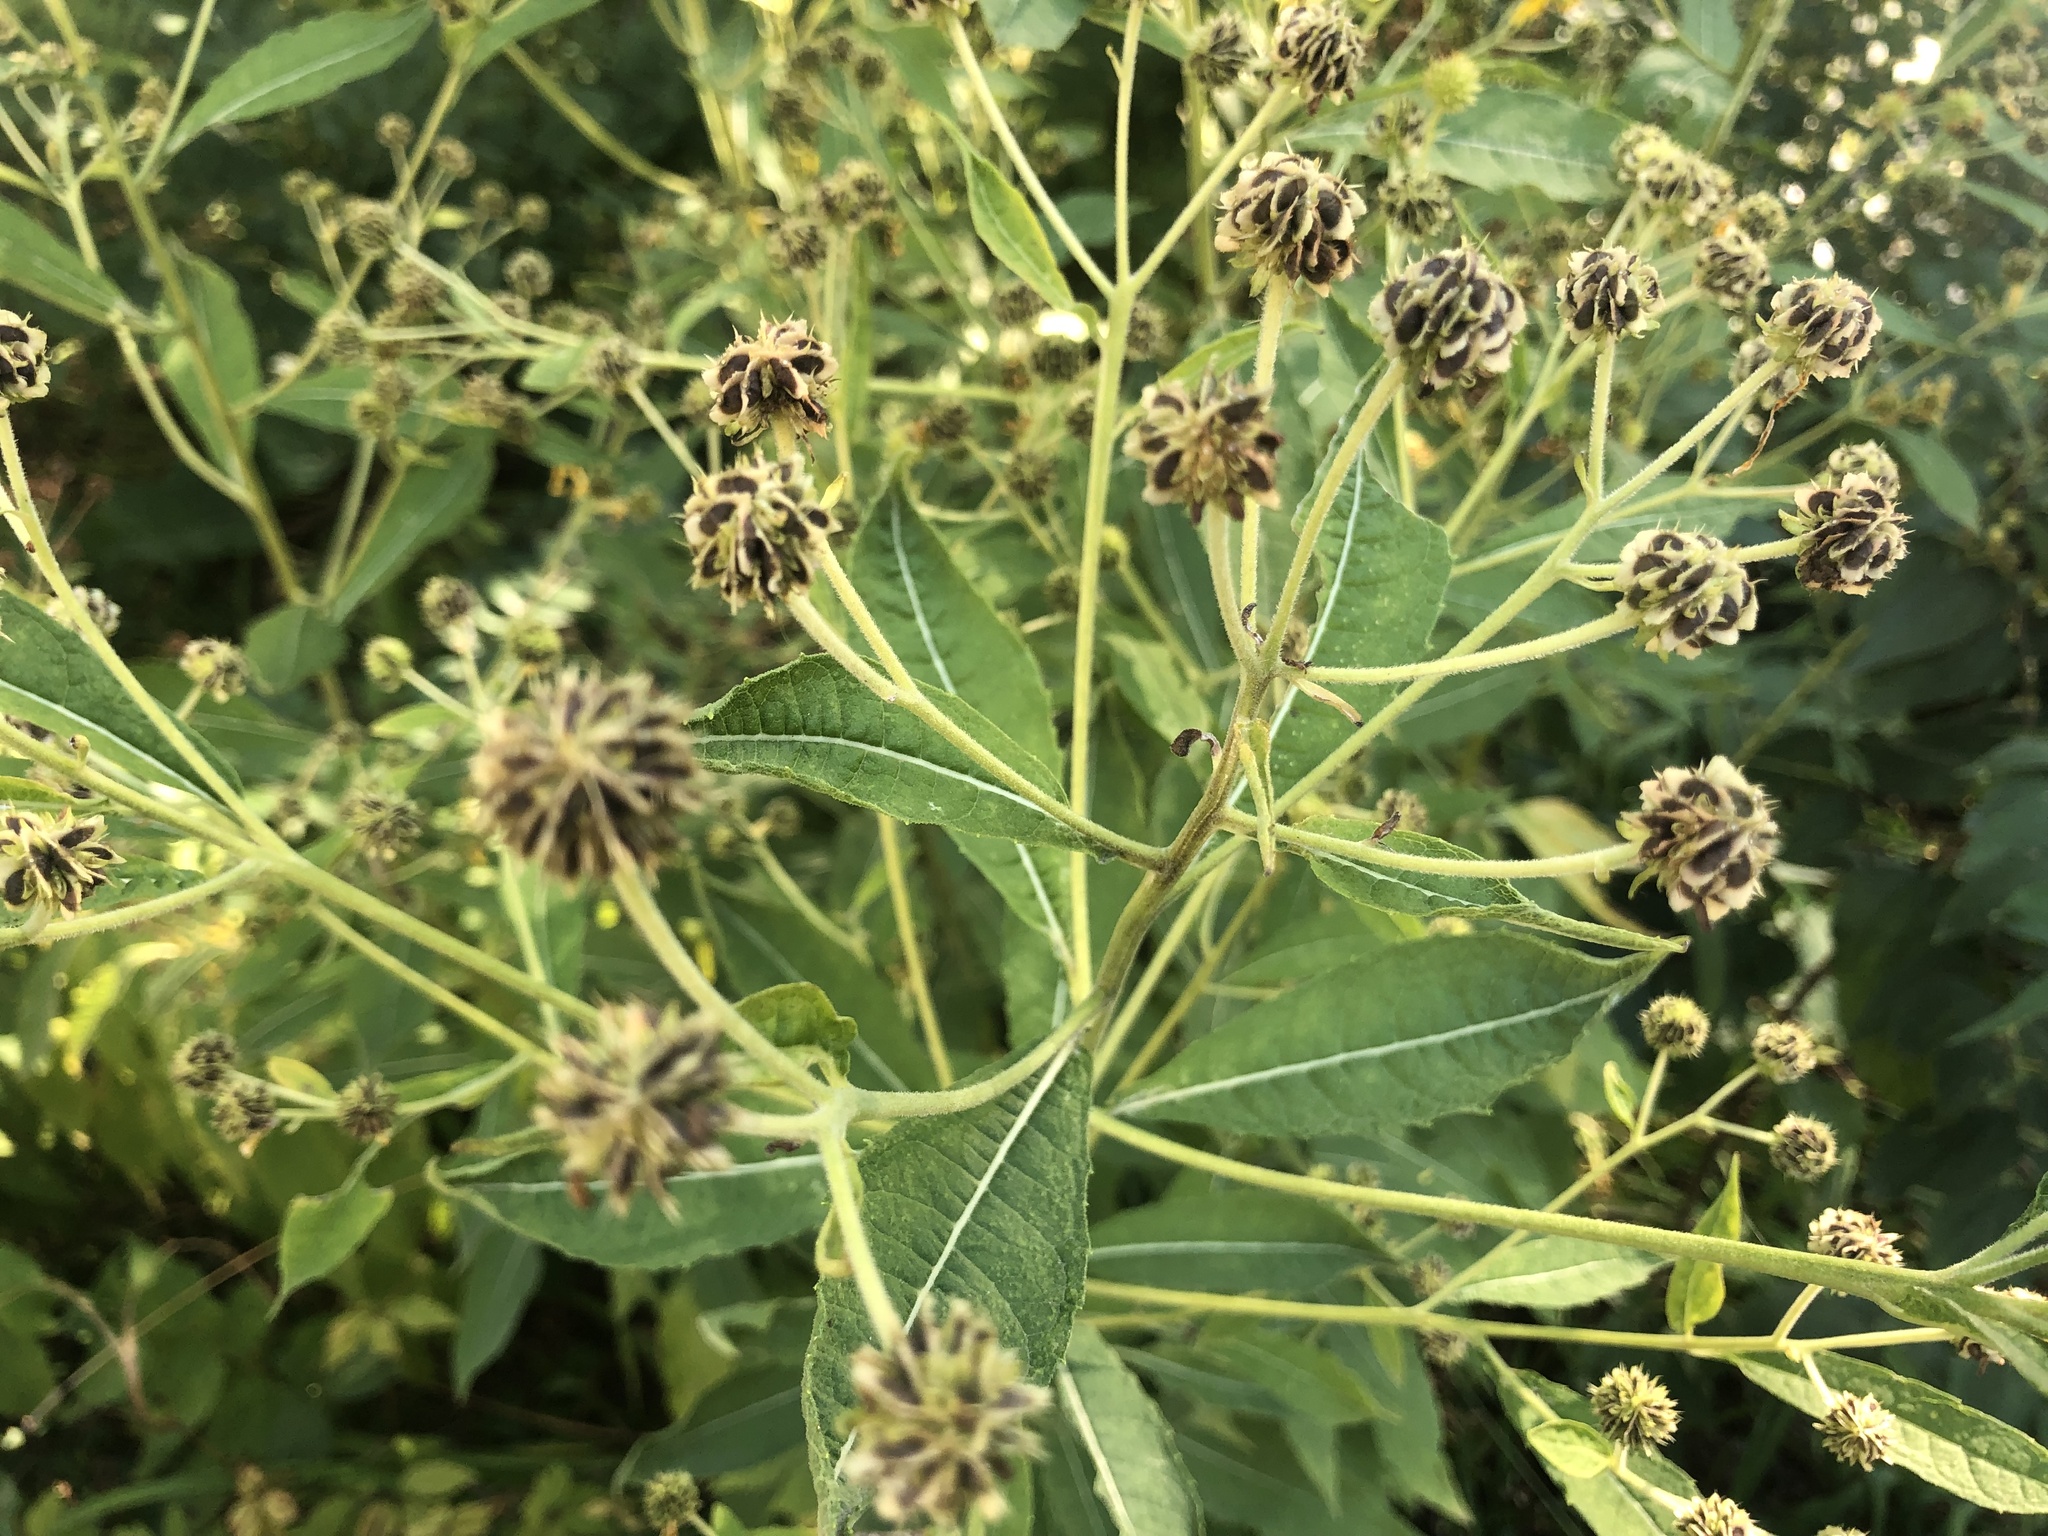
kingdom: Plantae
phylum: Tracheophyta
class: Magnoliopsida
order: Asterales
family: Asteraceae
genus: Verbesina
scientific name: Verbesina alternifolia
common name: Wingstem
